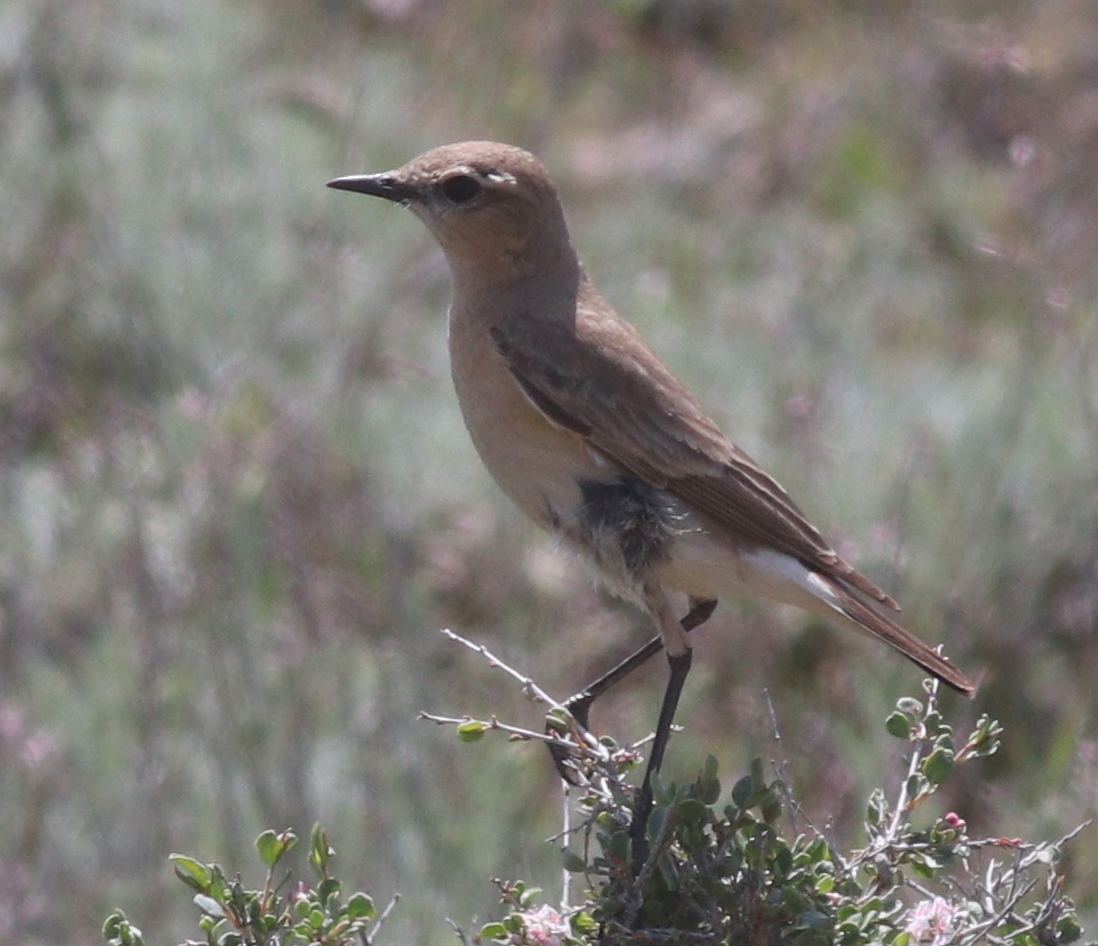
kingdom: Animalia
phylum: Chordata
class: Aves
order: Passeriformes
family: Muscicapidae
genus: Oenanthe
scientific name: Oenanthe isabellina
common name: Isabelline wheatear
